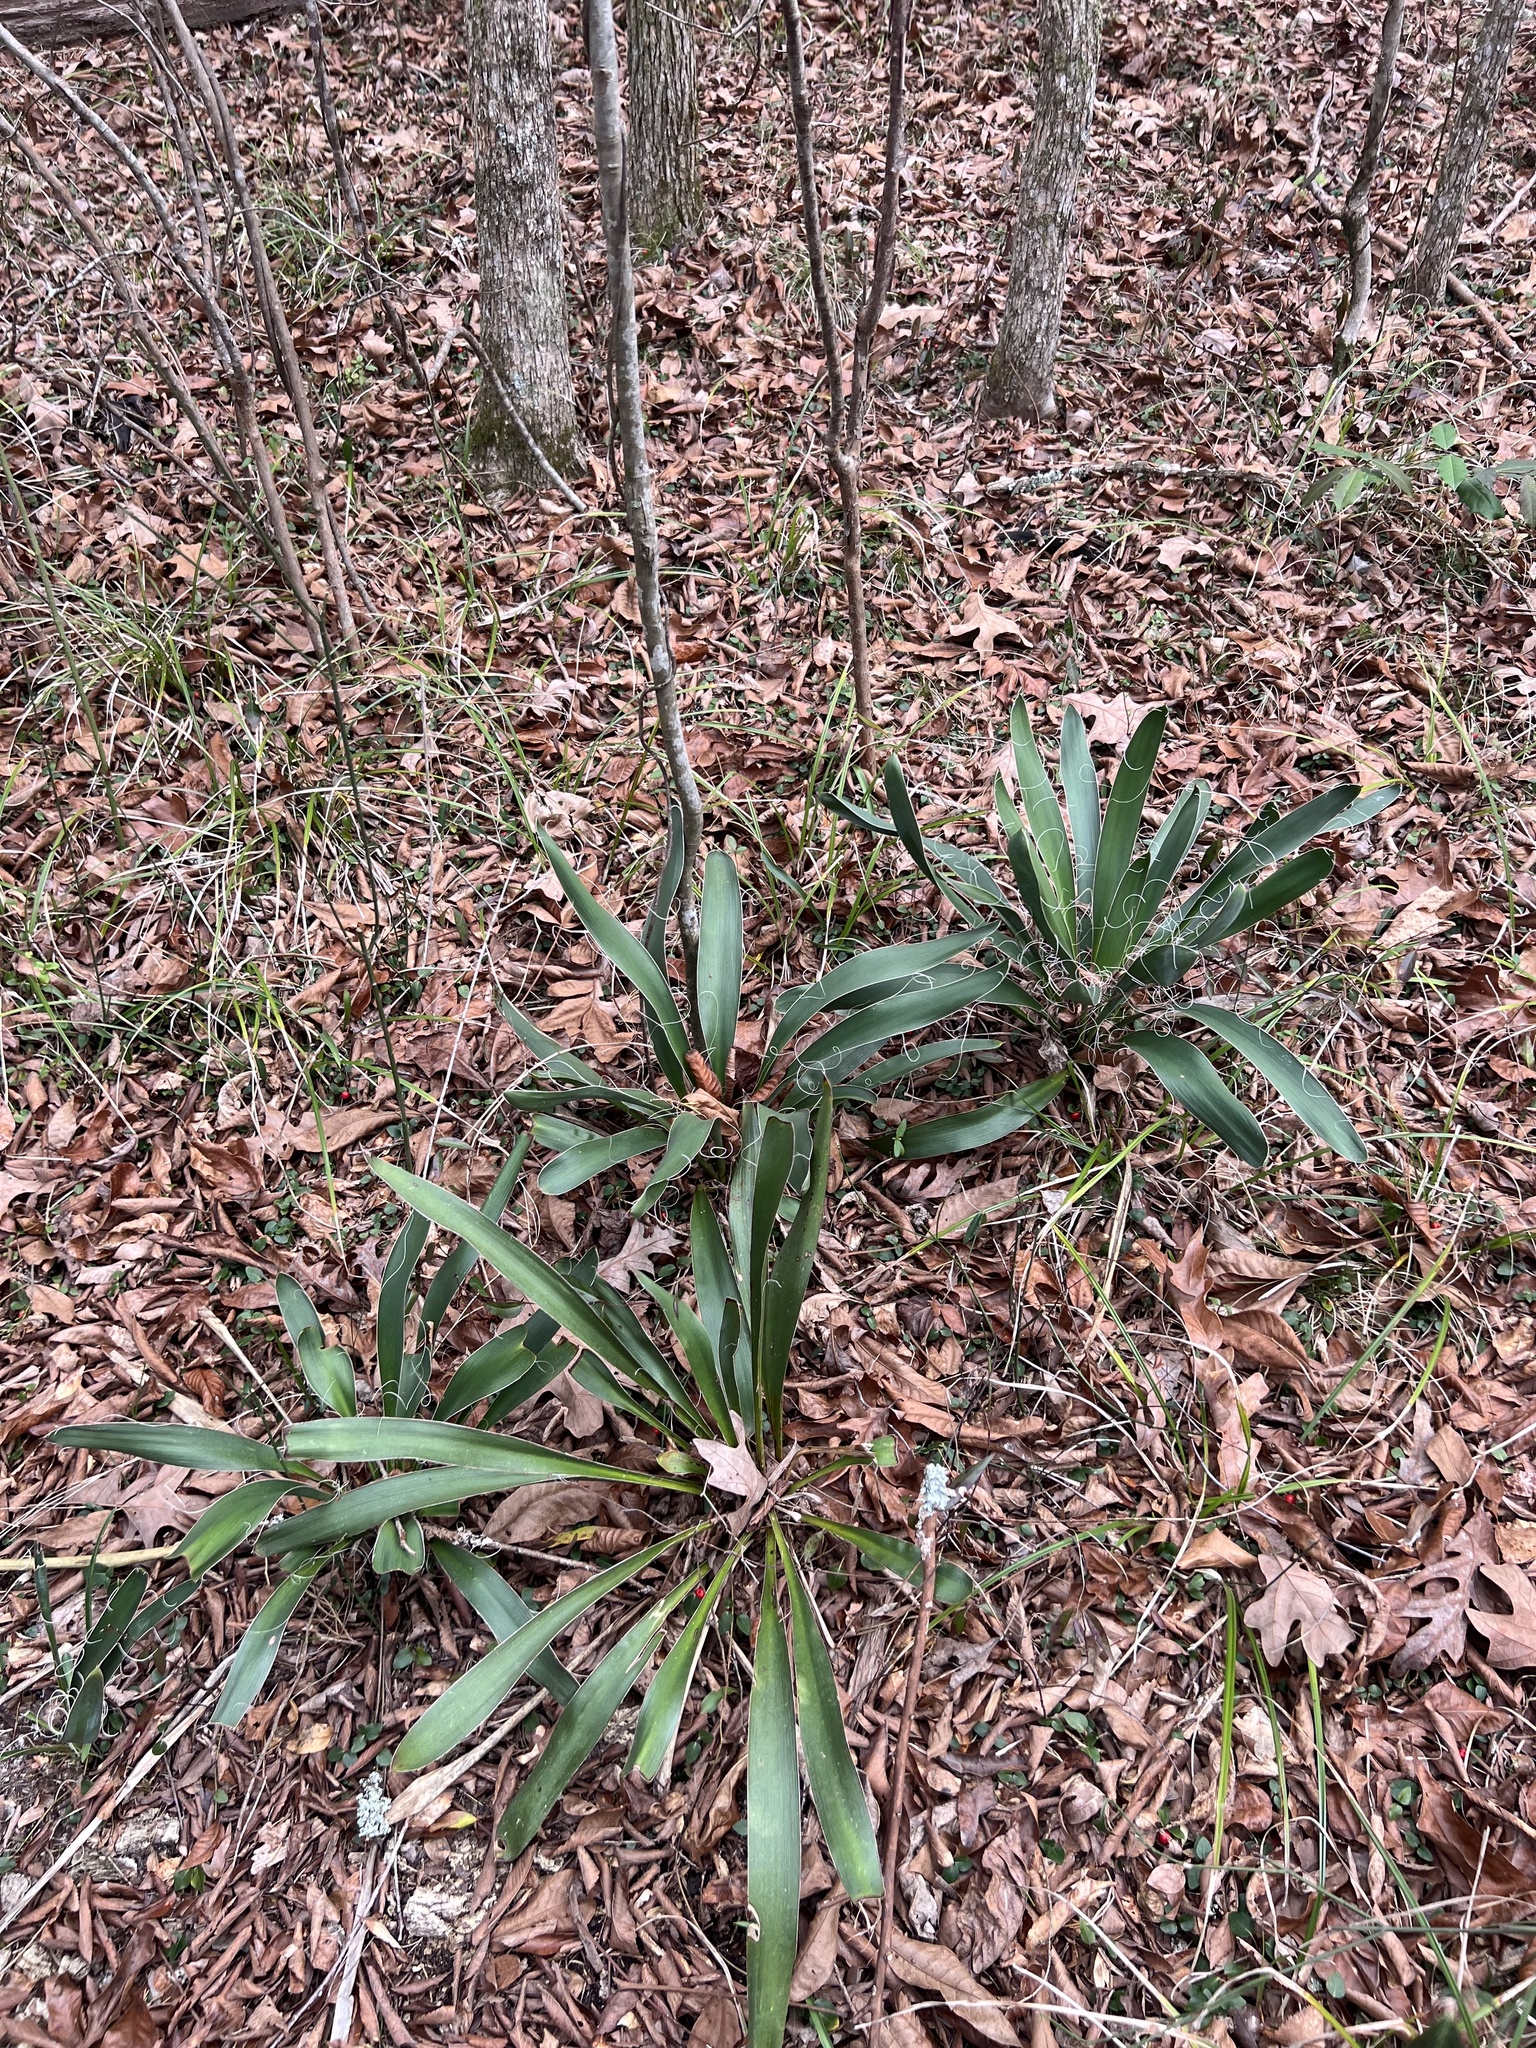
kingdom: Plantae
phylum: Tracheophyta
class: Liliopsida
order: Asparagales
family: Asparagaceae
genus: Yucca
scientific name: Yucca filamentosa
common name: Adam's-needle
